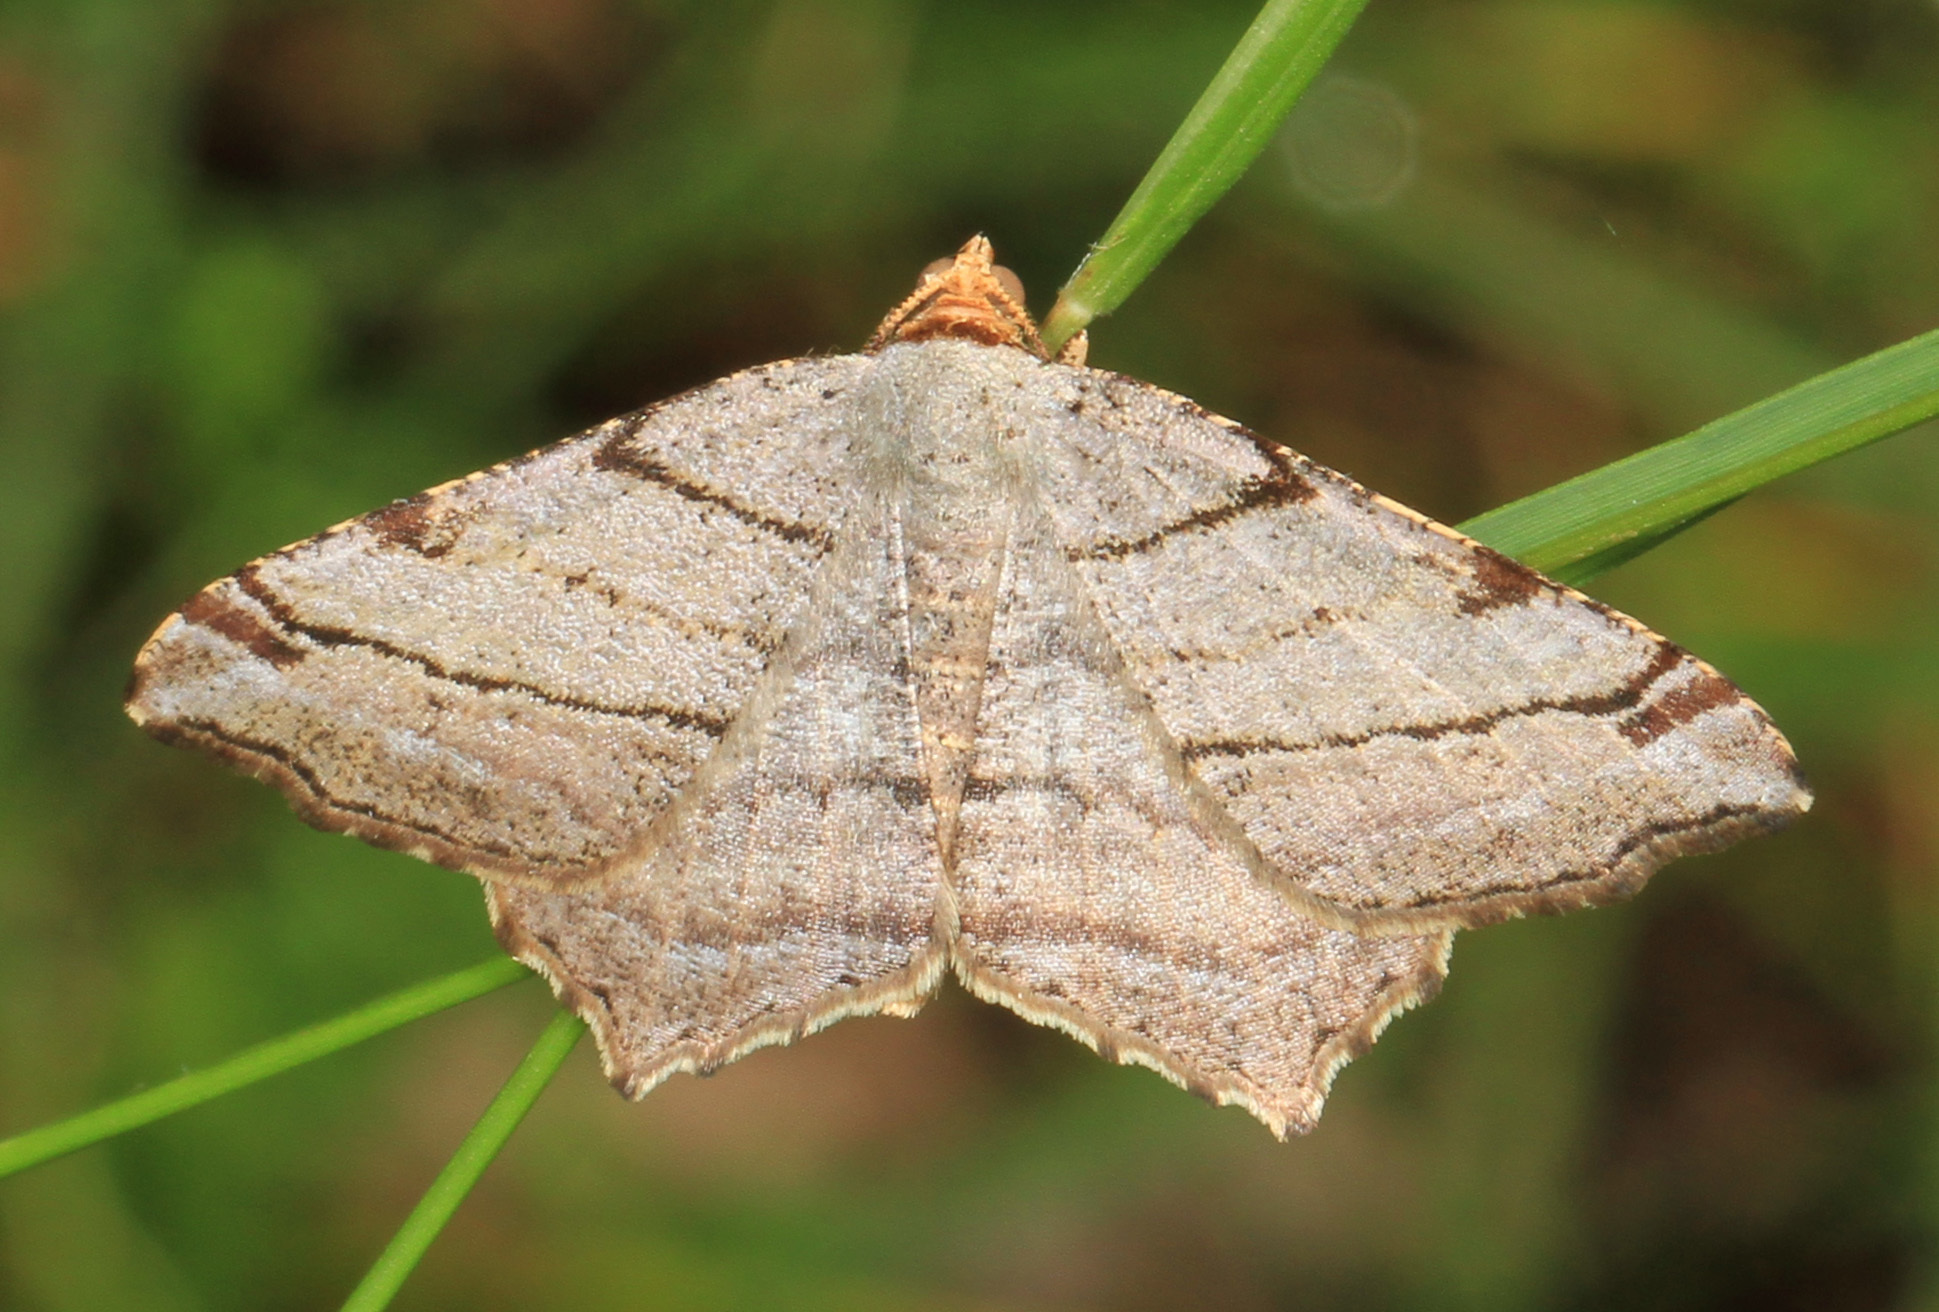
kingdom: Animalia
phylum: Arthropoda
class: Insecta
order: Lepidoptera
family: Geometridae
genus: Macaria
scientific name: Macaria multilineata
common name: Many-lined angle
